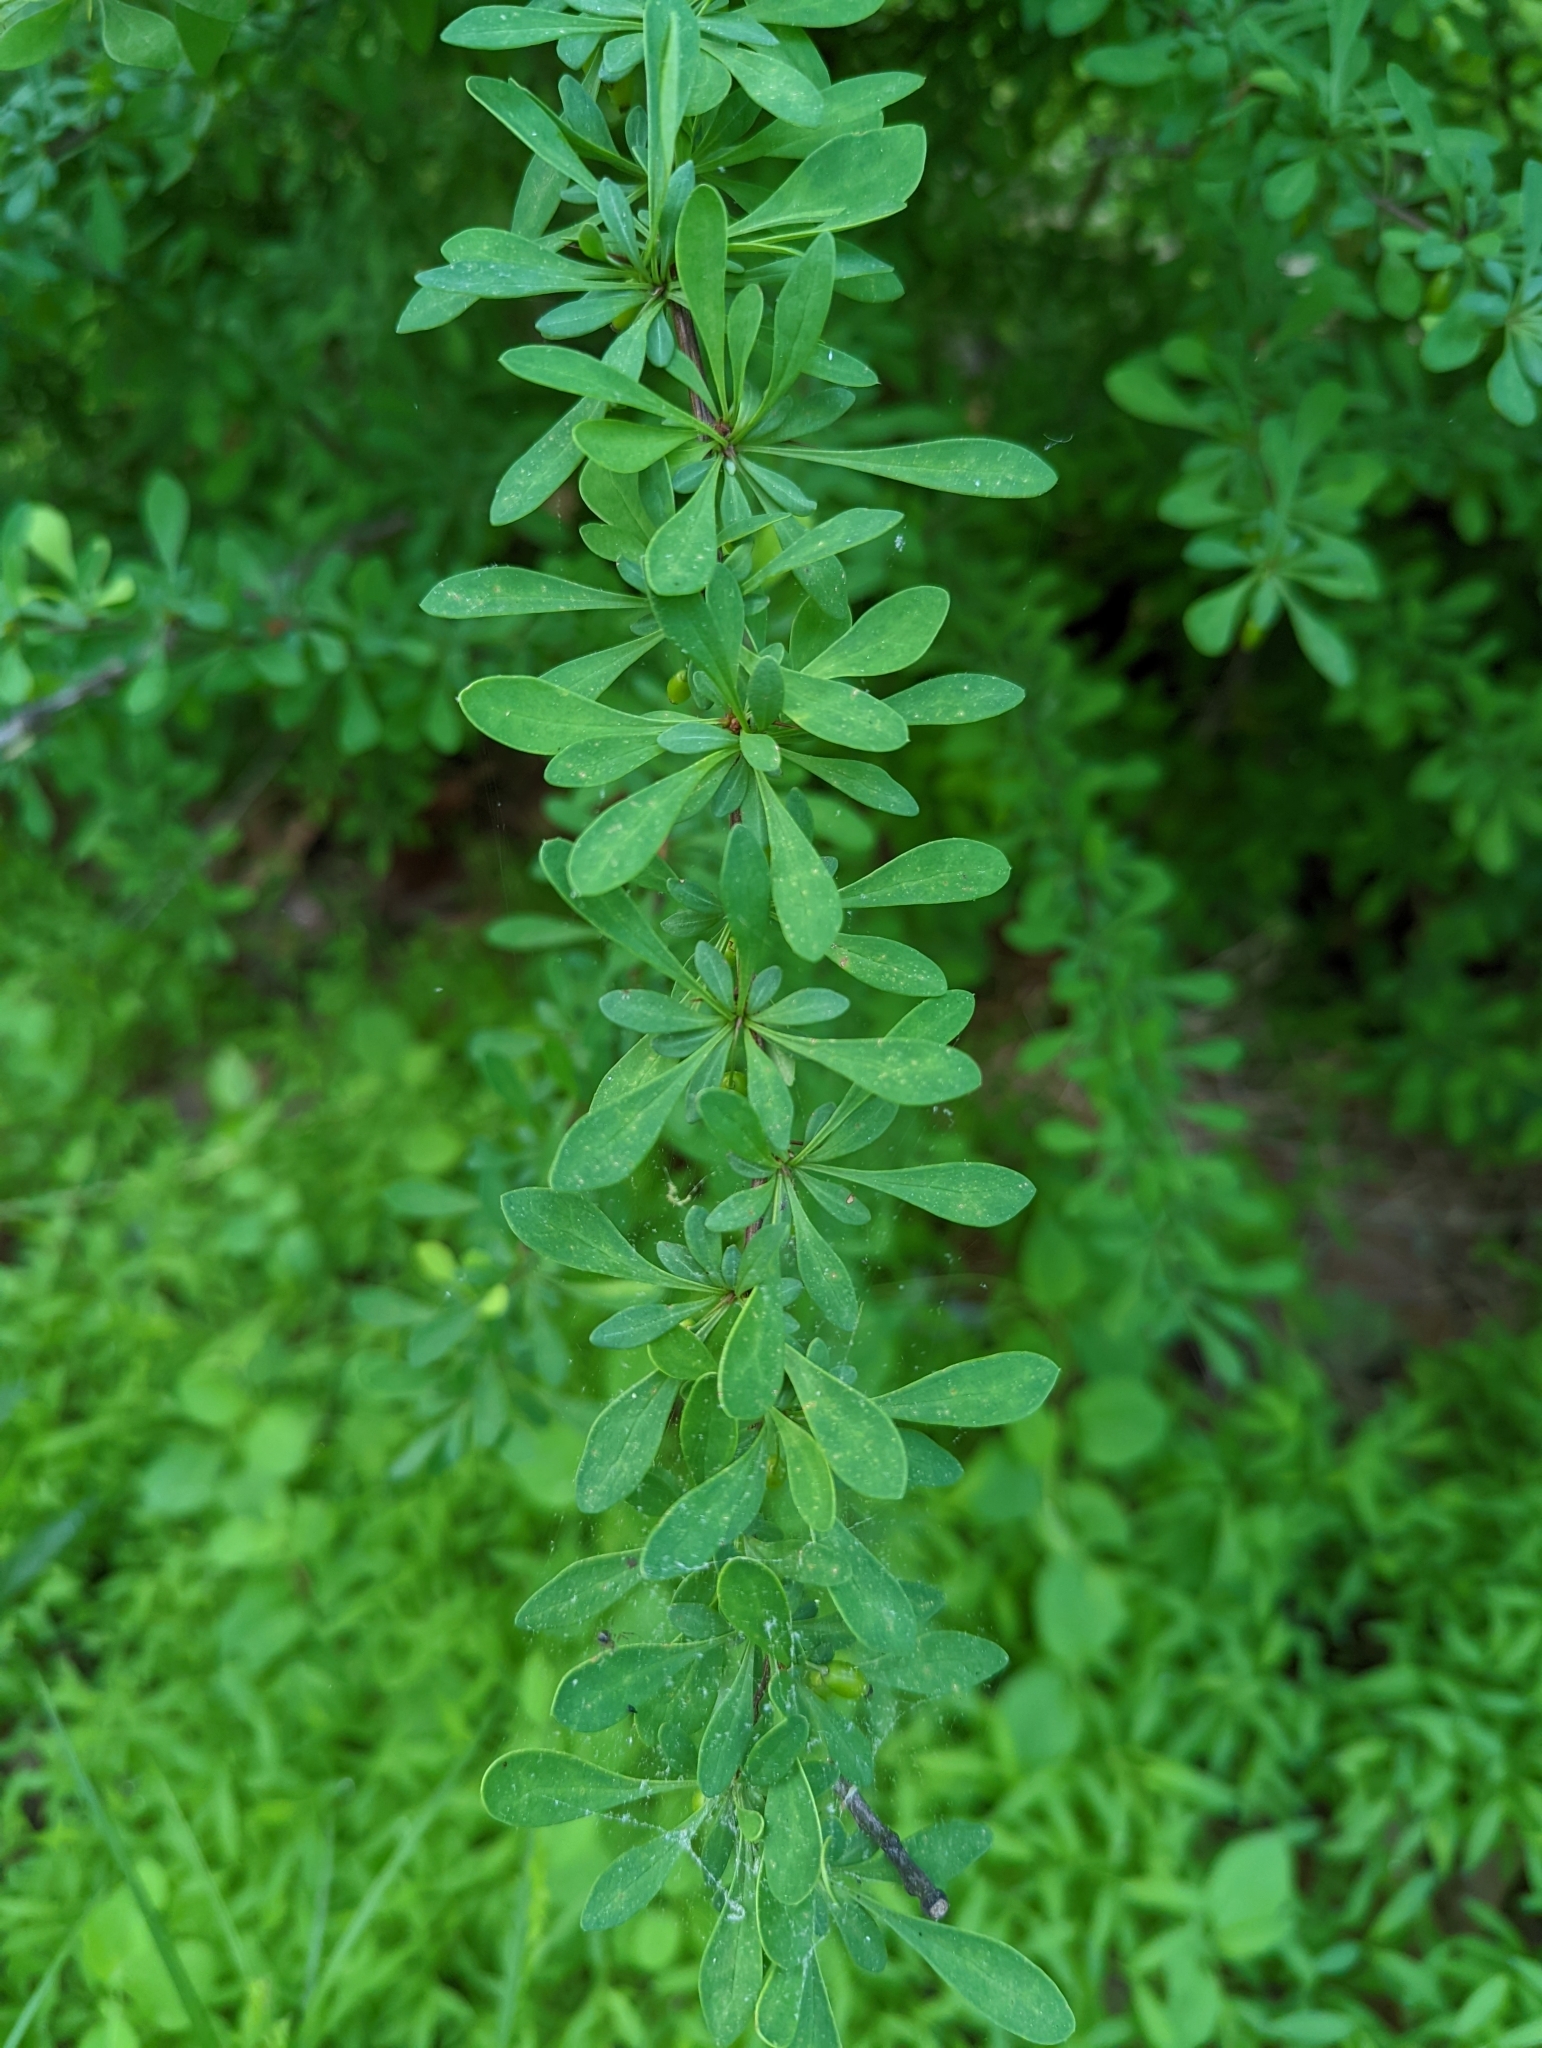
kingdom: Plantae
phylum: Tracheophyta
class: Magnoliopsida
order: Ranunculales
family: Berberidaceae
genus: Berberis
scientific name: Berberis thunbergii
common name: Japanese barberry
